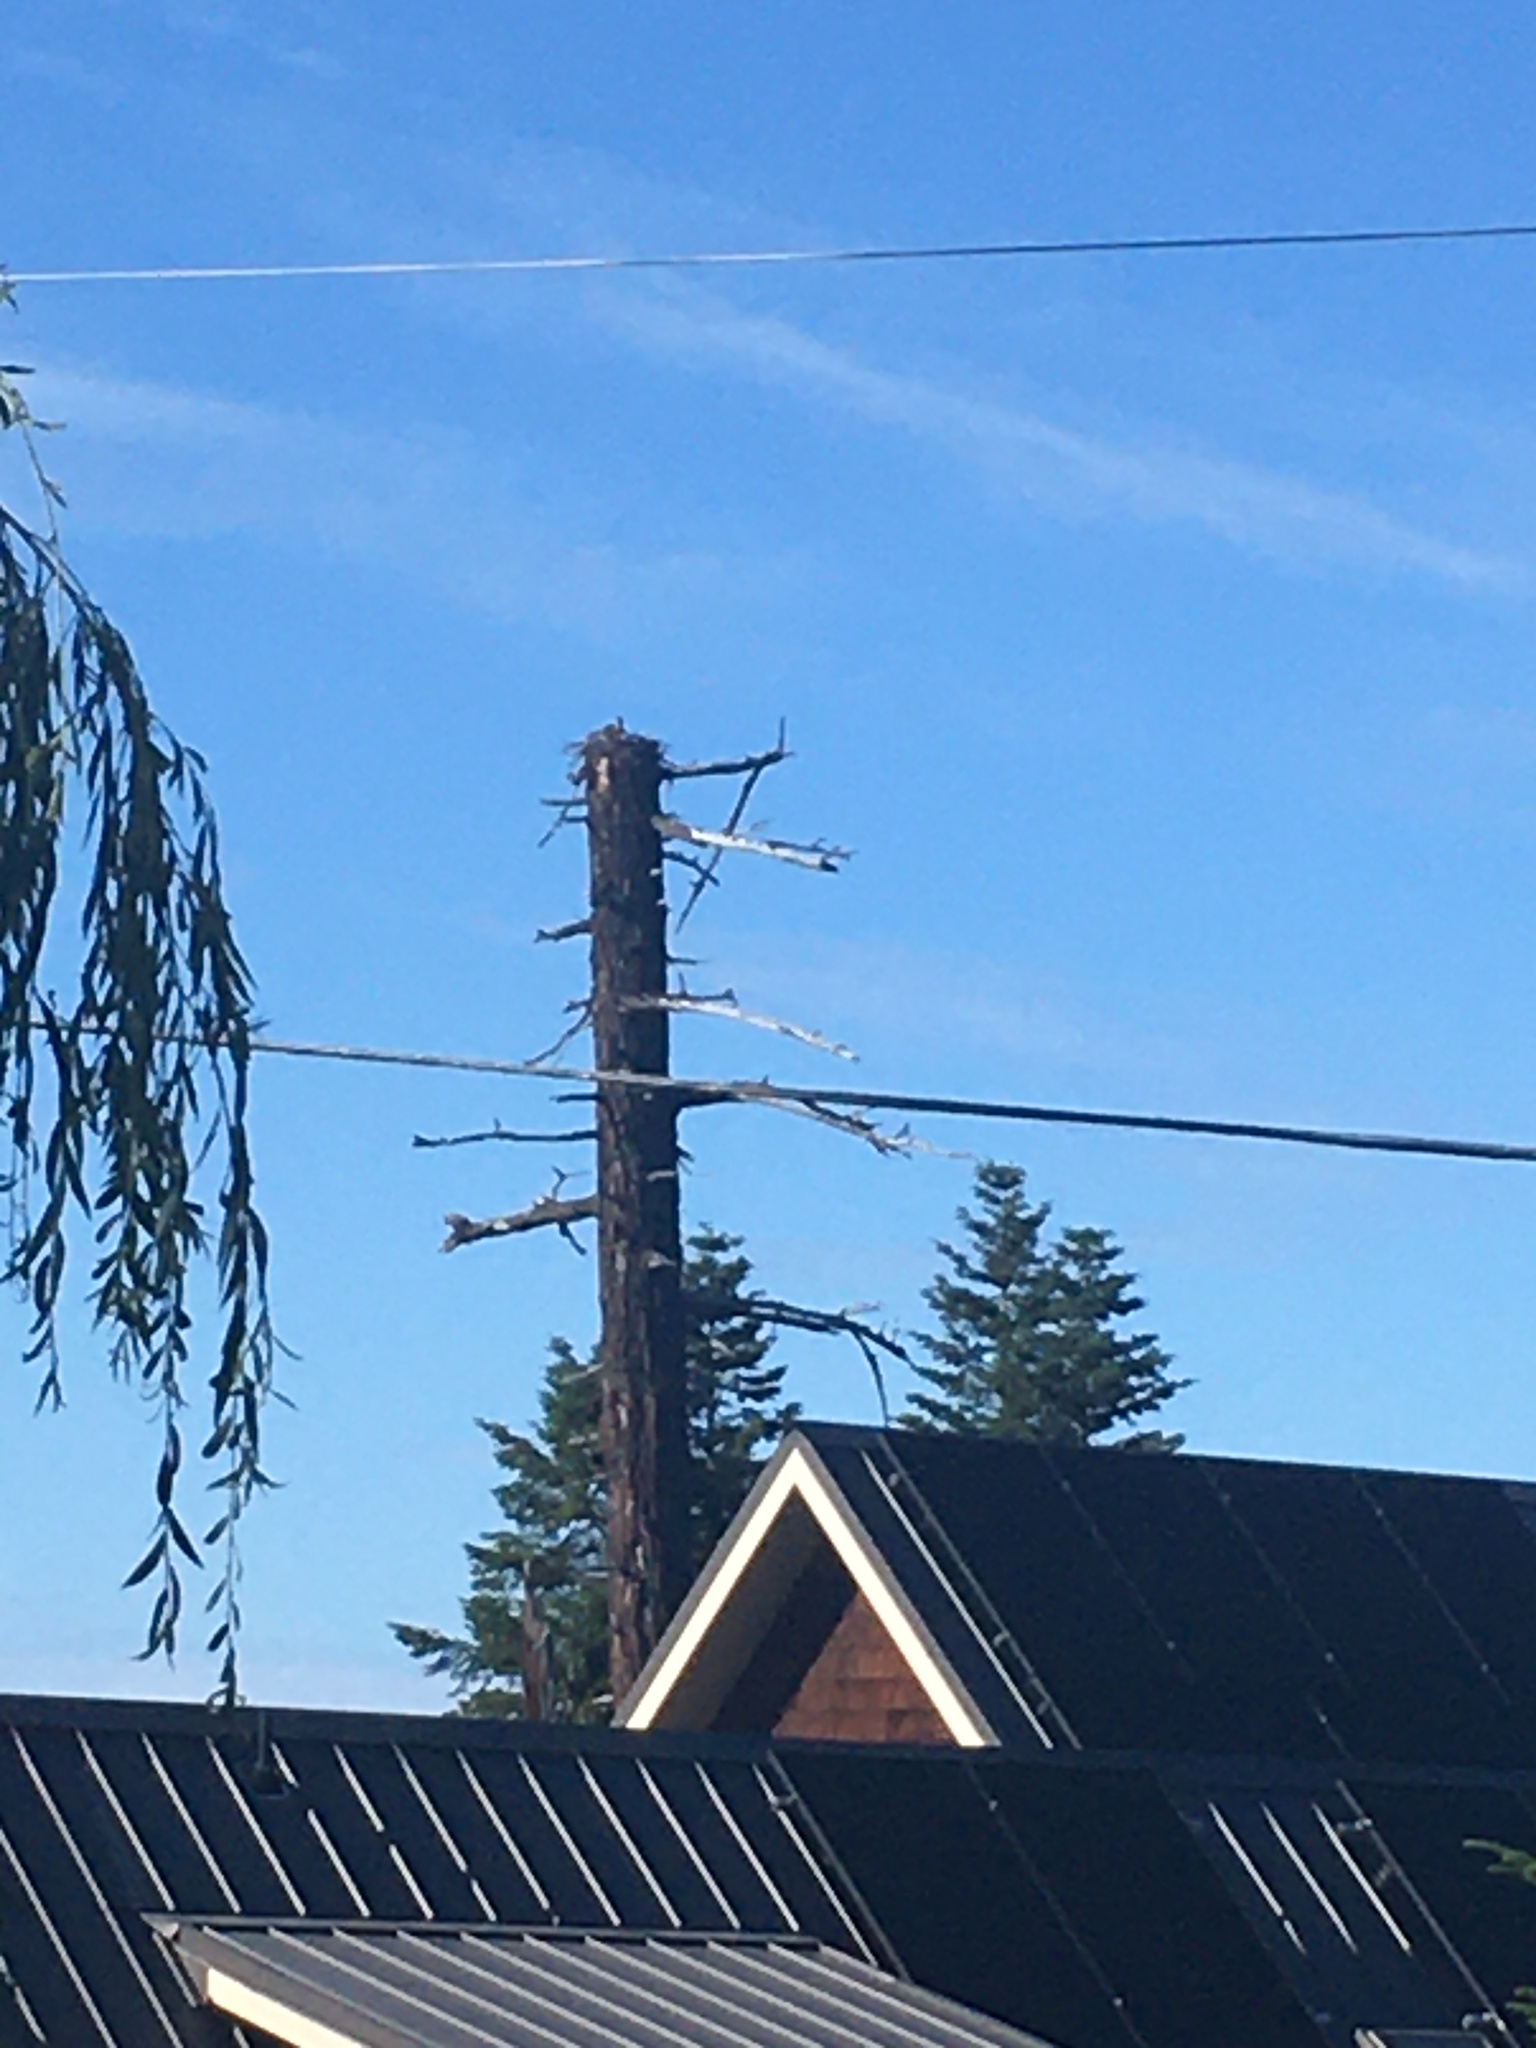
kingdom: Animalia
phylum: Chordata
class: Aves
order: Accipitriformes
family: Pandionidae
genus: Pandion
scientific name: Pandion haliaetus
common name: Osprey
